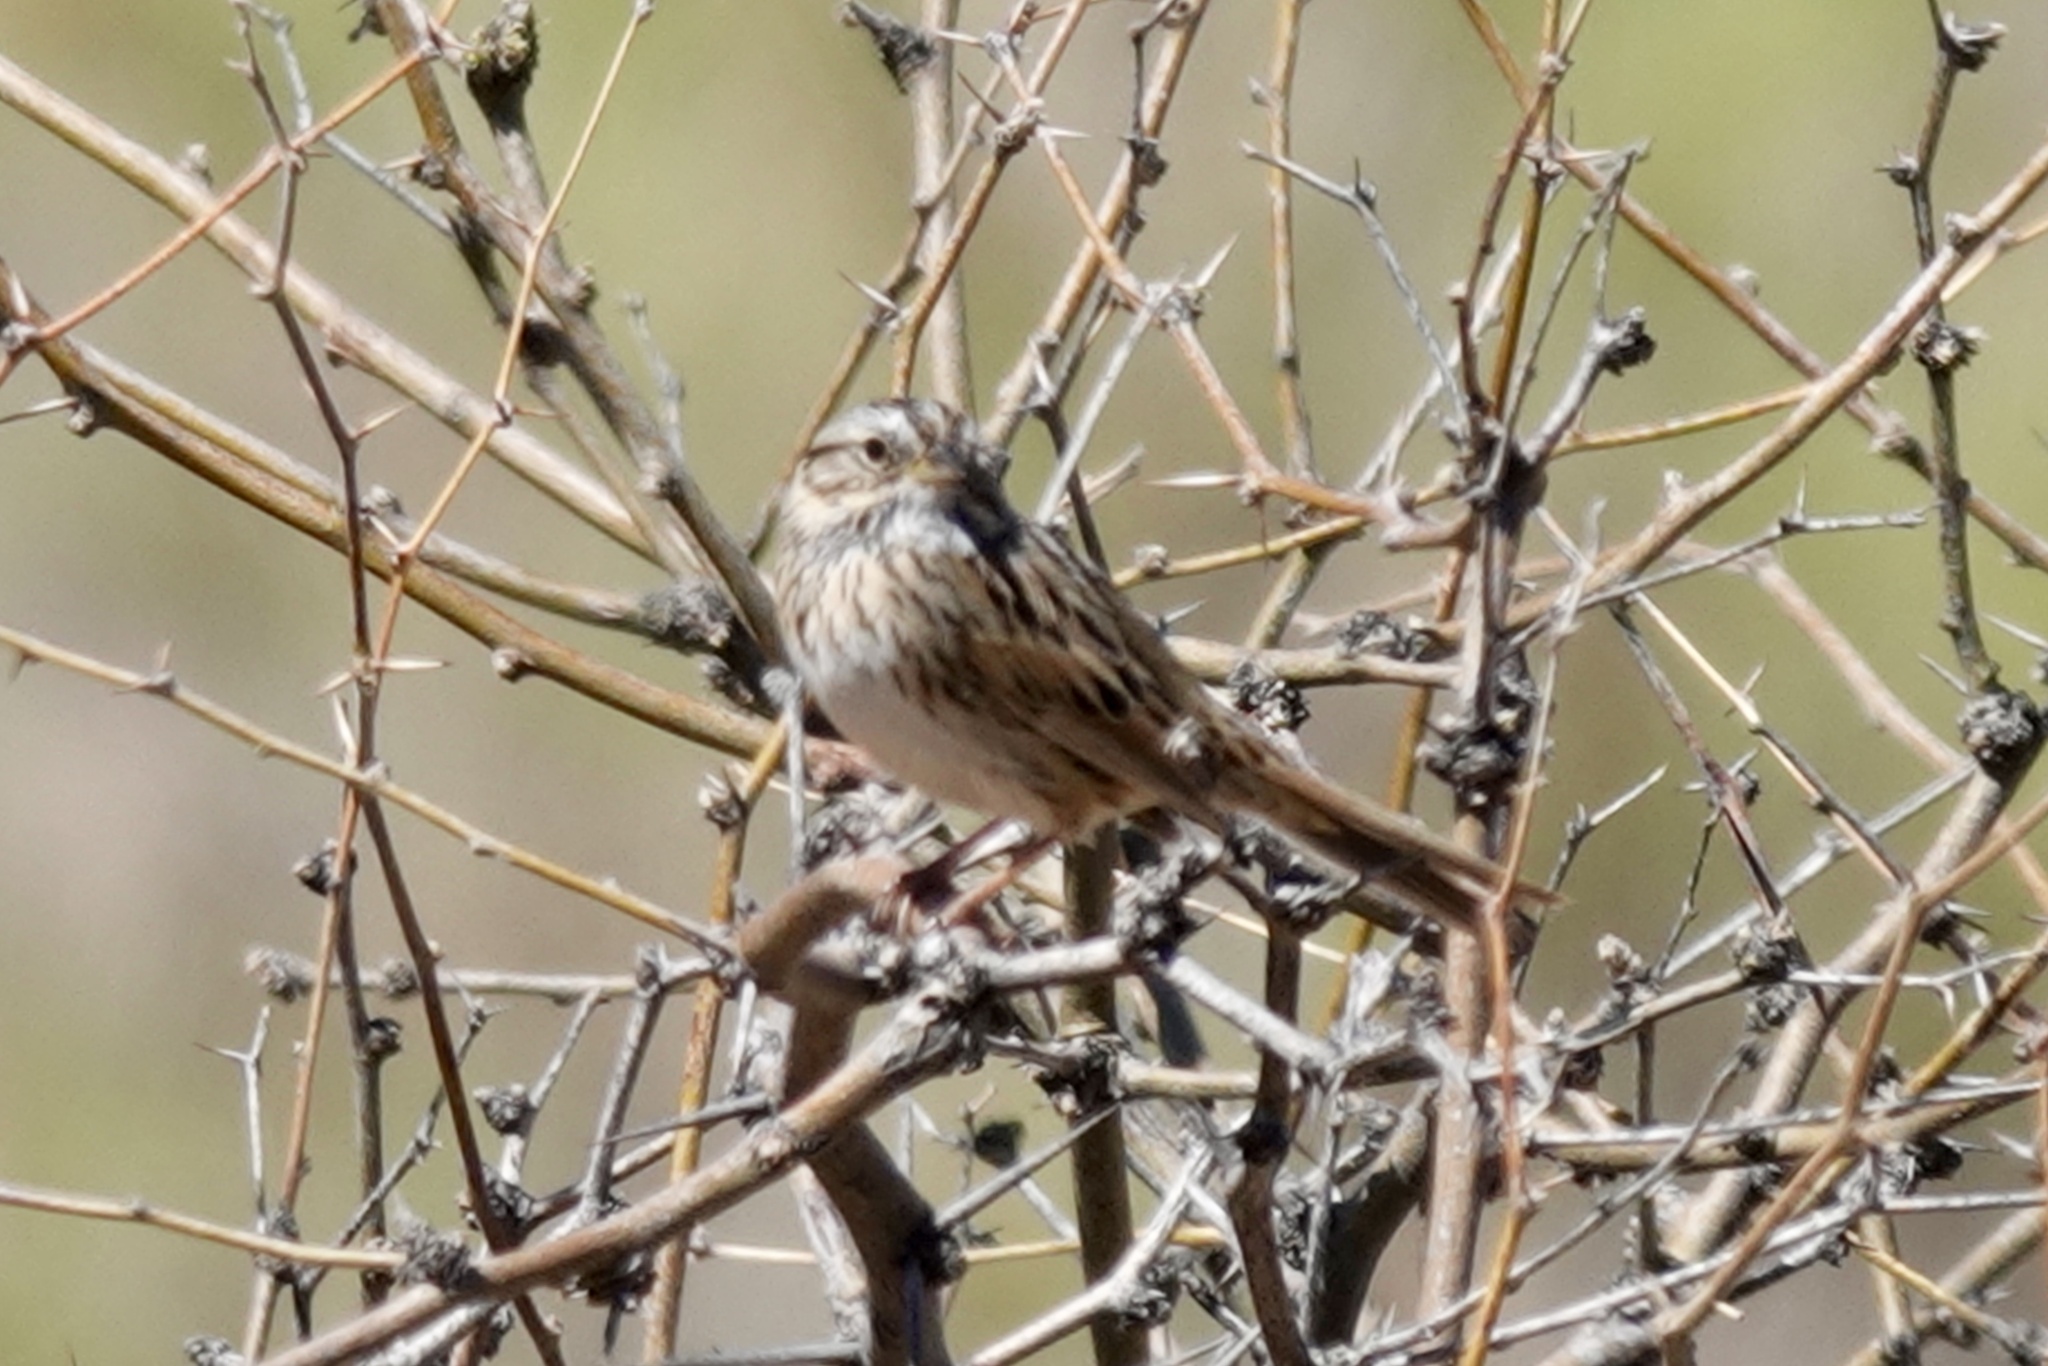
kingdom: Animalia
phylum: Chordata
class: Aves
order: Passeriformes
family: Passerellidae
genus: Melospiza
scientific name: Melospiza lincolnii
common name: Lincoln's sparrow
